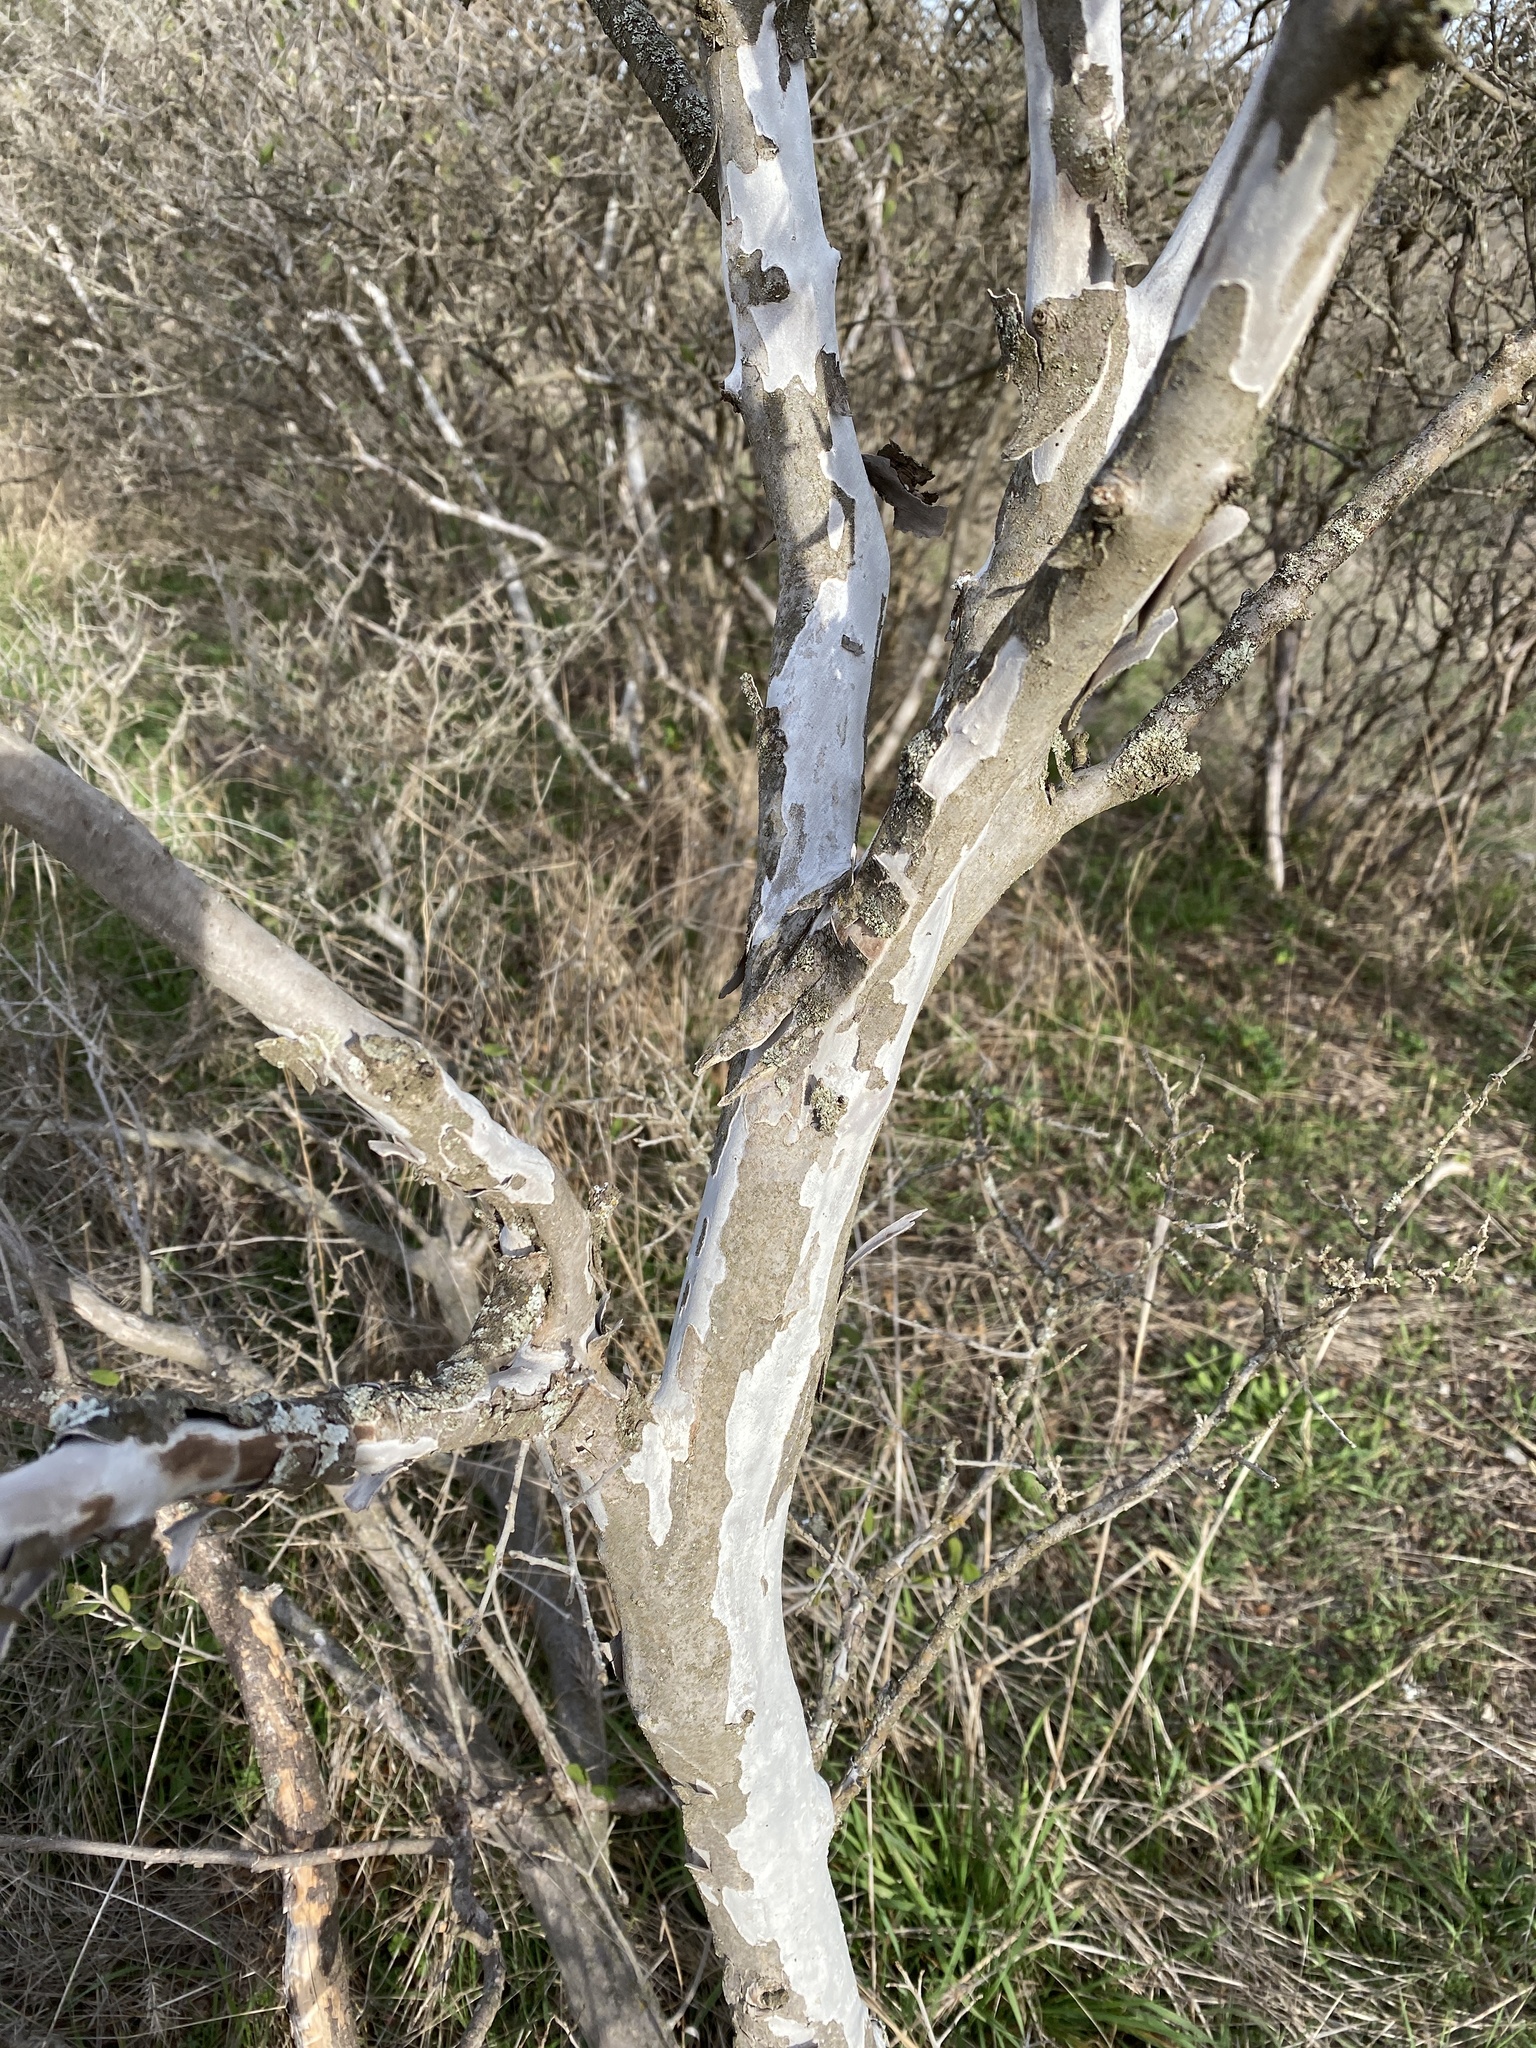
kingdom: Plantae
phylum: Tracheophyta
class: Magnoliopsida
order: Ericales
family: Ebenaceae
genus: Diospyros
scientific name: Diospyros texana
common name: Texas persimmon
